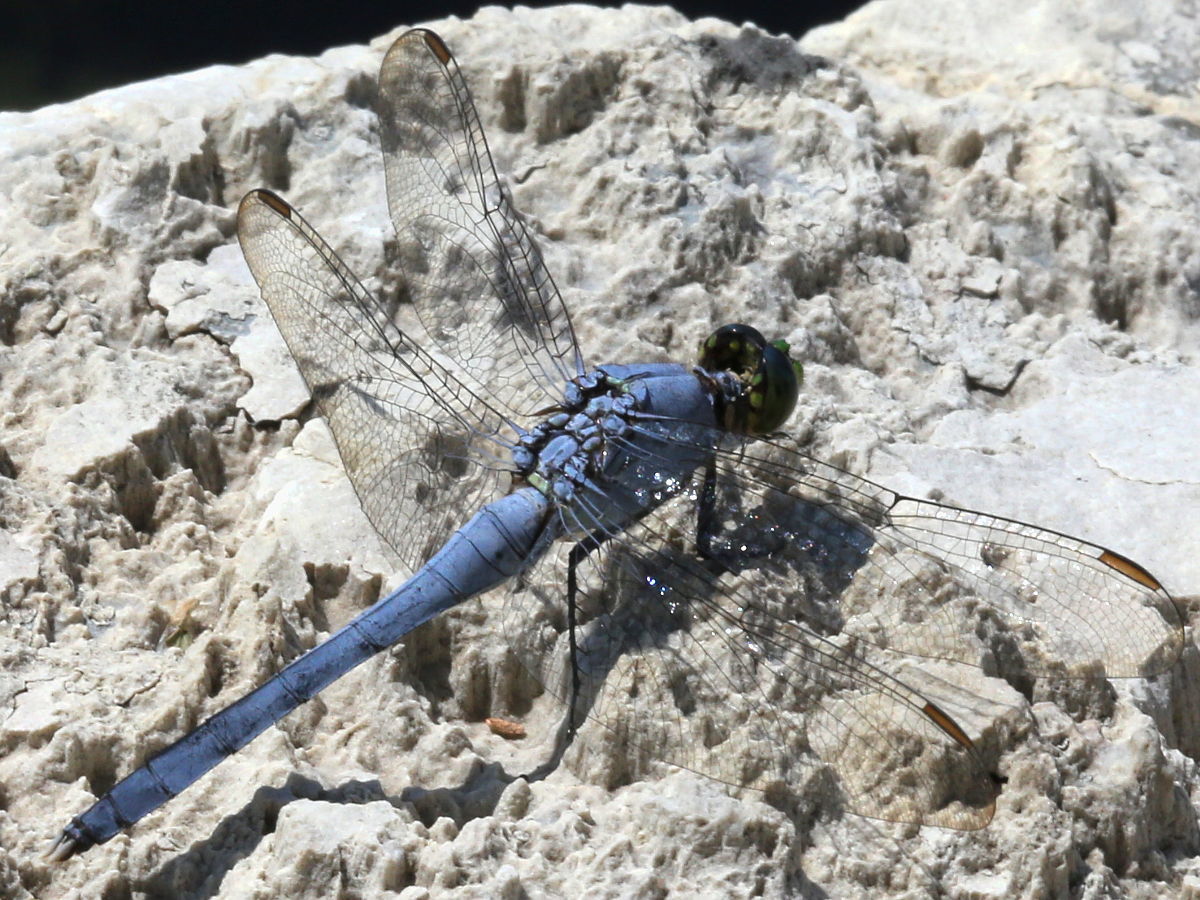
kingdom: Animalia
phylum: Arthropoda
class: Insecta
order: Odonata
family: Libellulidae
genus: Erythemis
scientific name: Erythemis simplicicollis
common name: Eastern pondhawk
